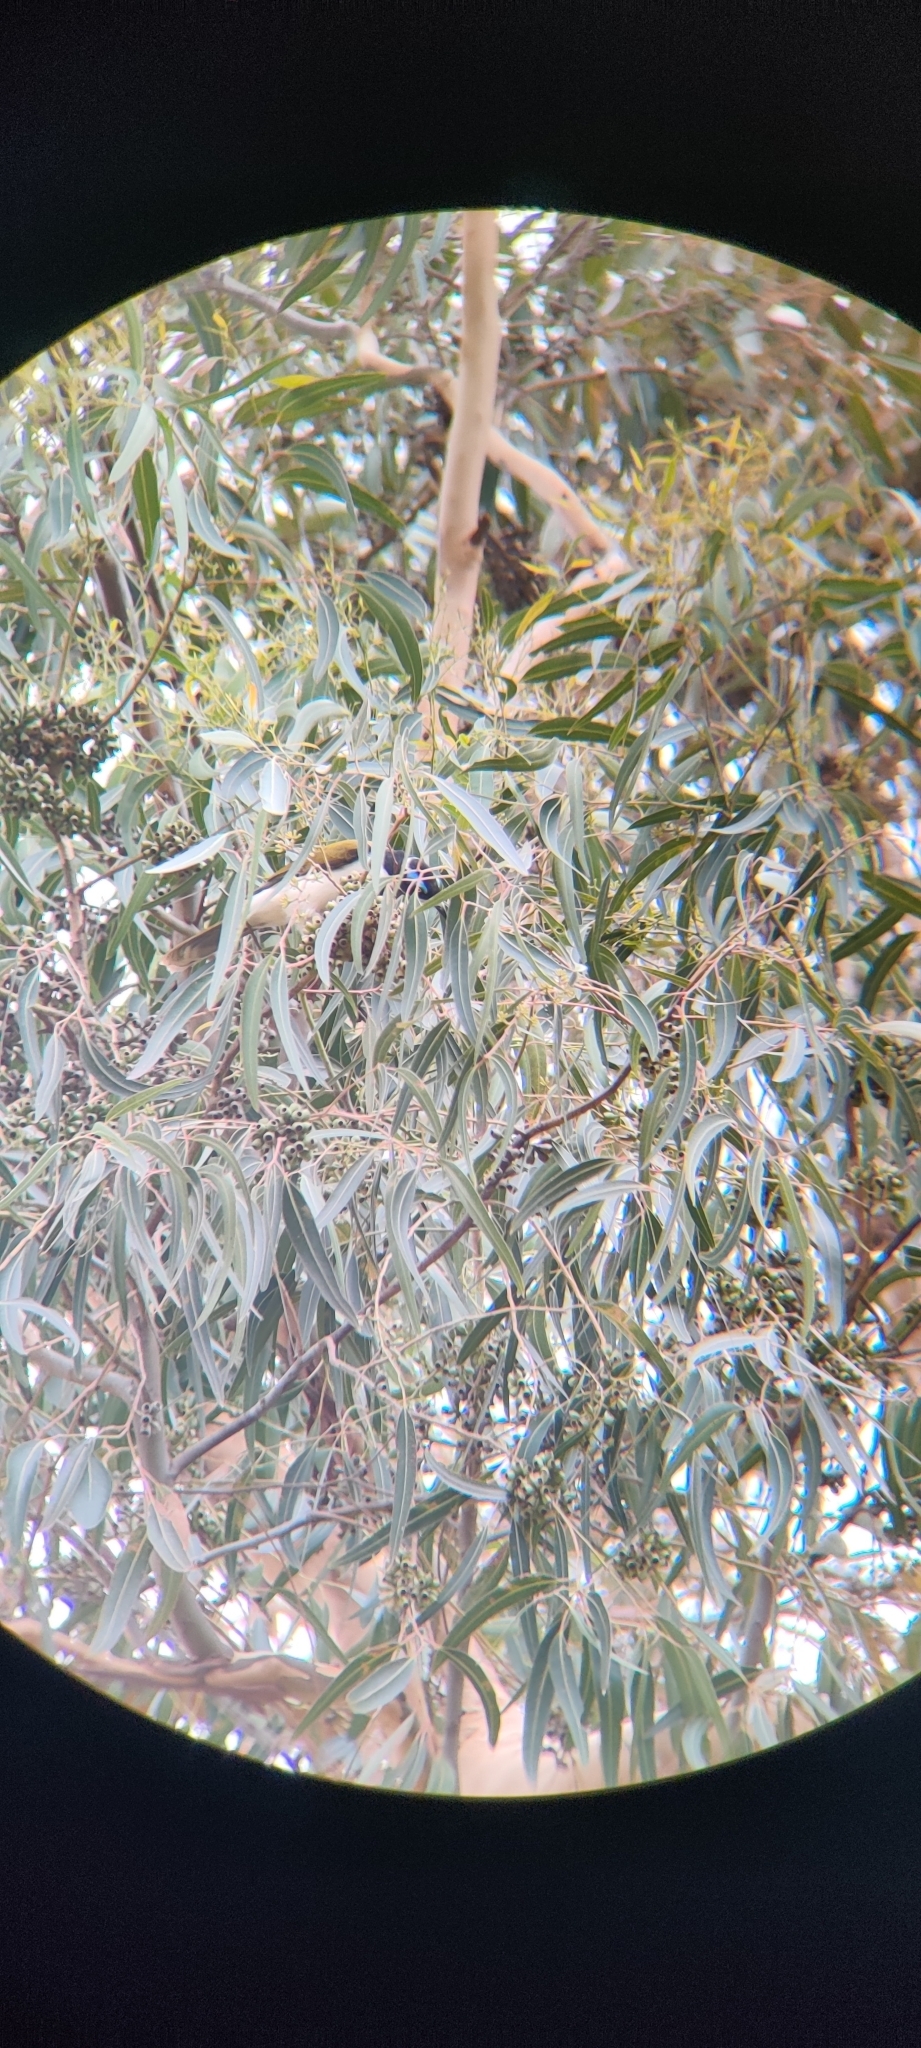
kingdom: Animalia
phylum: Chordata
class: Aves
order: Passeriformes
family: Meliphagidae
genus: Entomyzon
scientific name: Entomyzon cyanotis
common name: Blue-faced honeyeater
